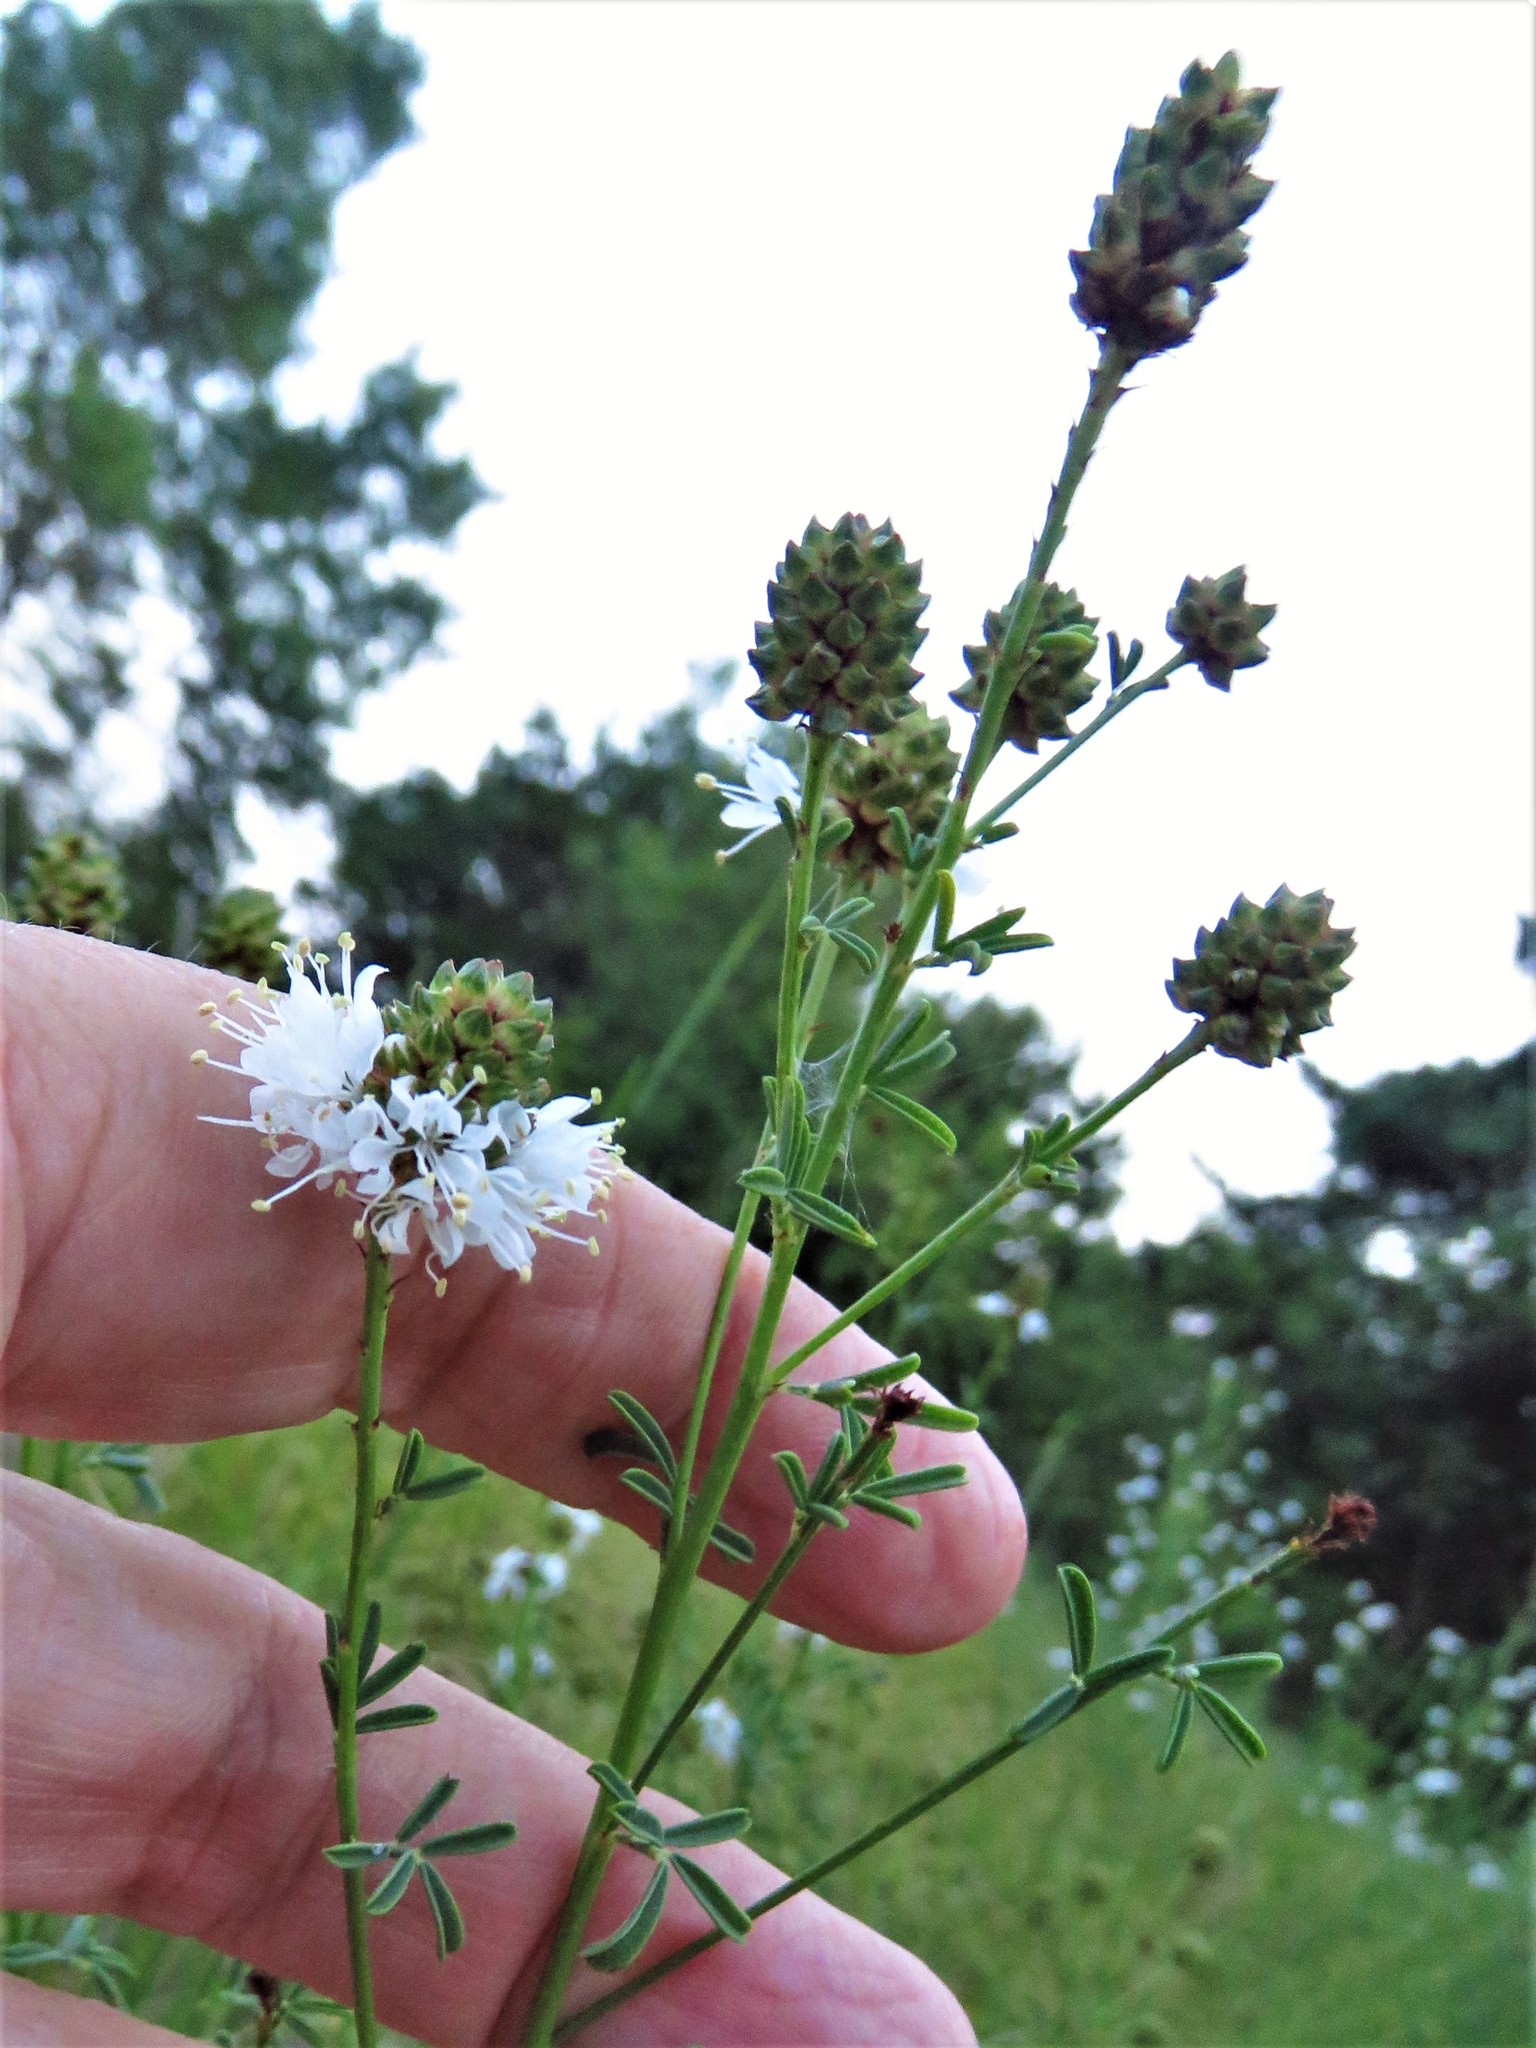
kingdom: Plantae
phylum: Tracheophyta
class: Magnoliopsida
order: Fabales
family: Fabaceae
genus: Dalea
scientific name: Dalea multiflora
